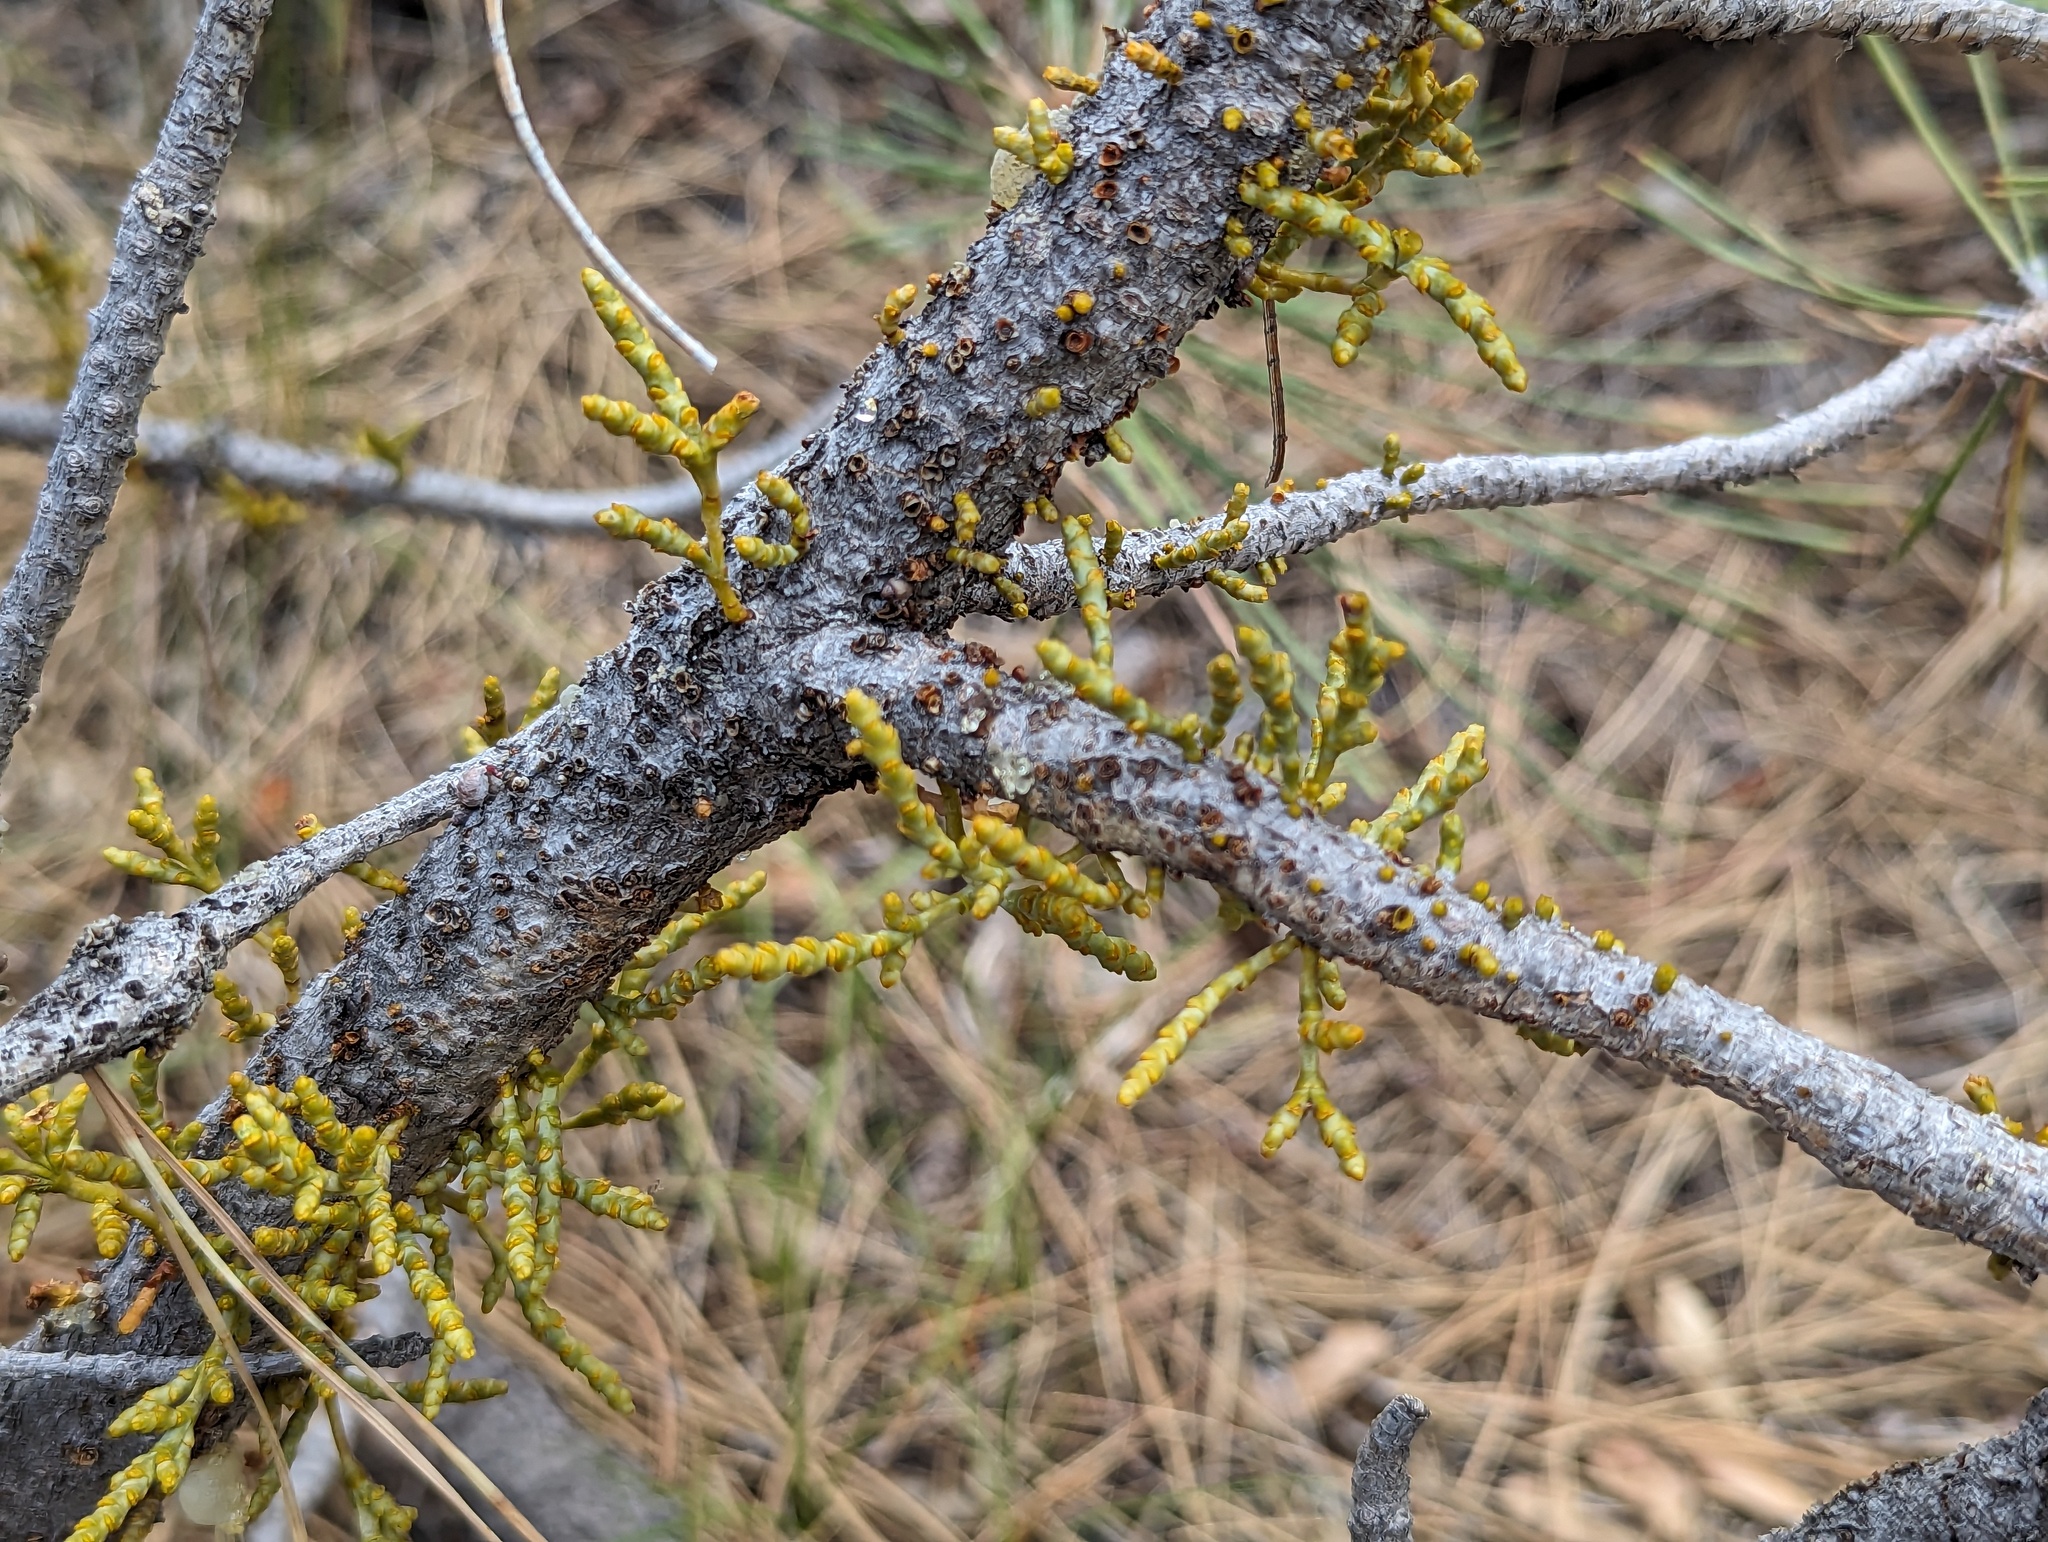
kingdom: Plantae
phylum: Tracheophyta
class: Magnoliopsida
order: Santalales
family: Viscaceae
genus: Arceuthobium
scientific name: Arceuthobium campylopodum
